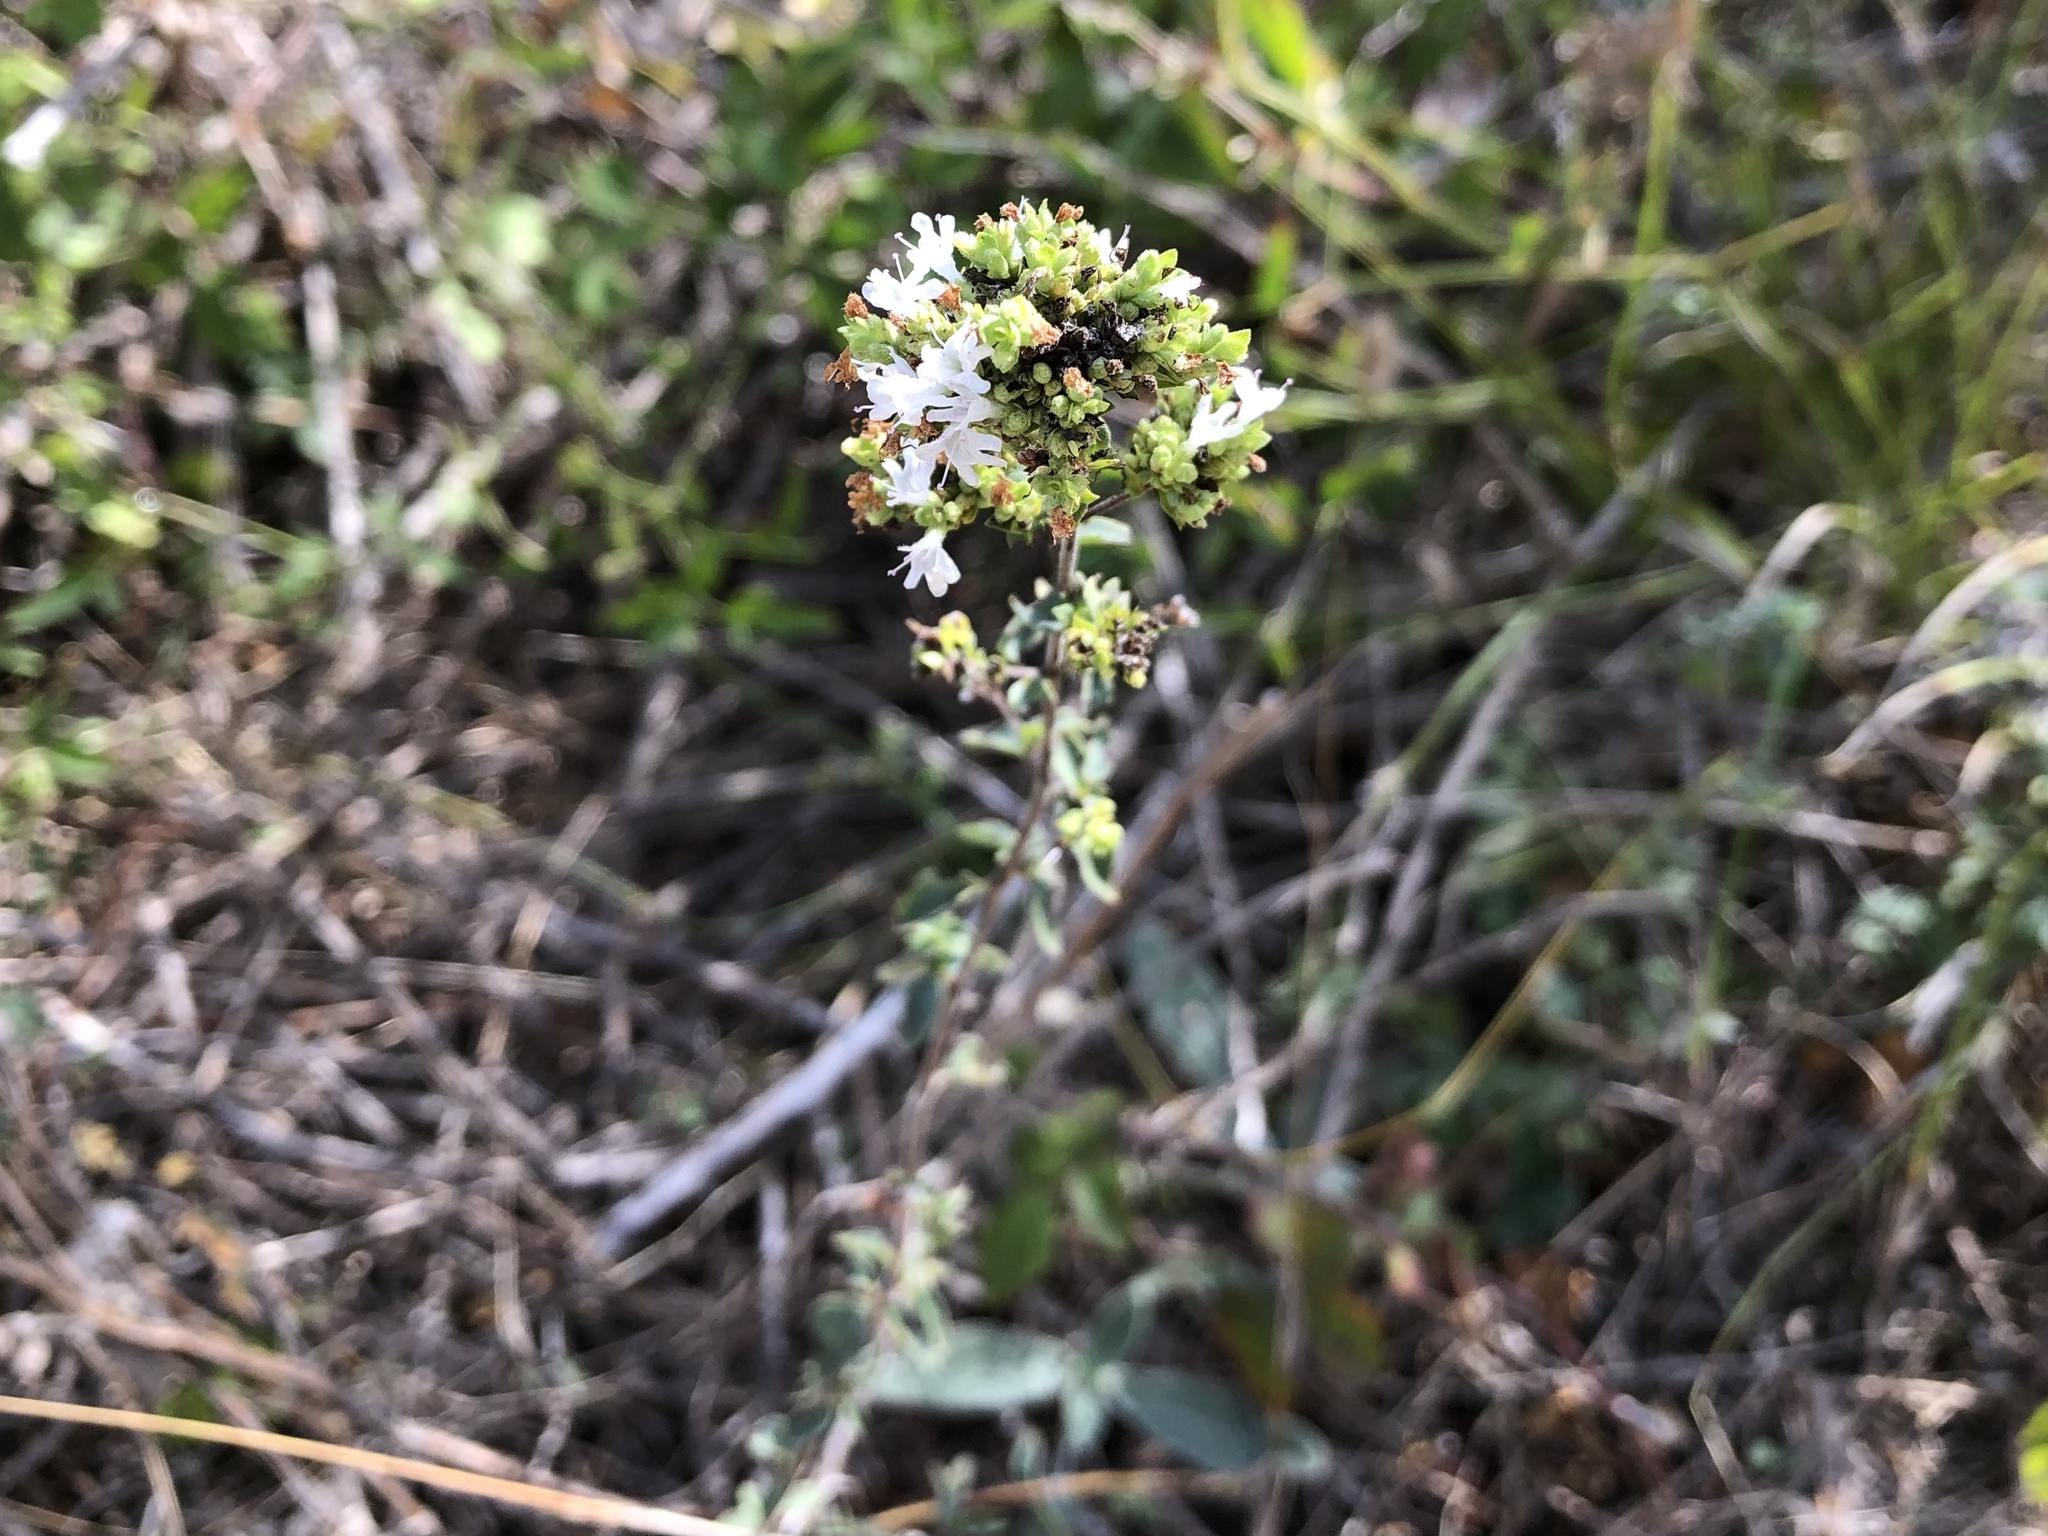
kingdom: Plantae
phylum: Tracheophyta
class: Magnoliopsida
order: Lamiales
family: Lamiaceae
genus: Origanum
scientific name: Origanum vulgare
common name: Wild marjoram
